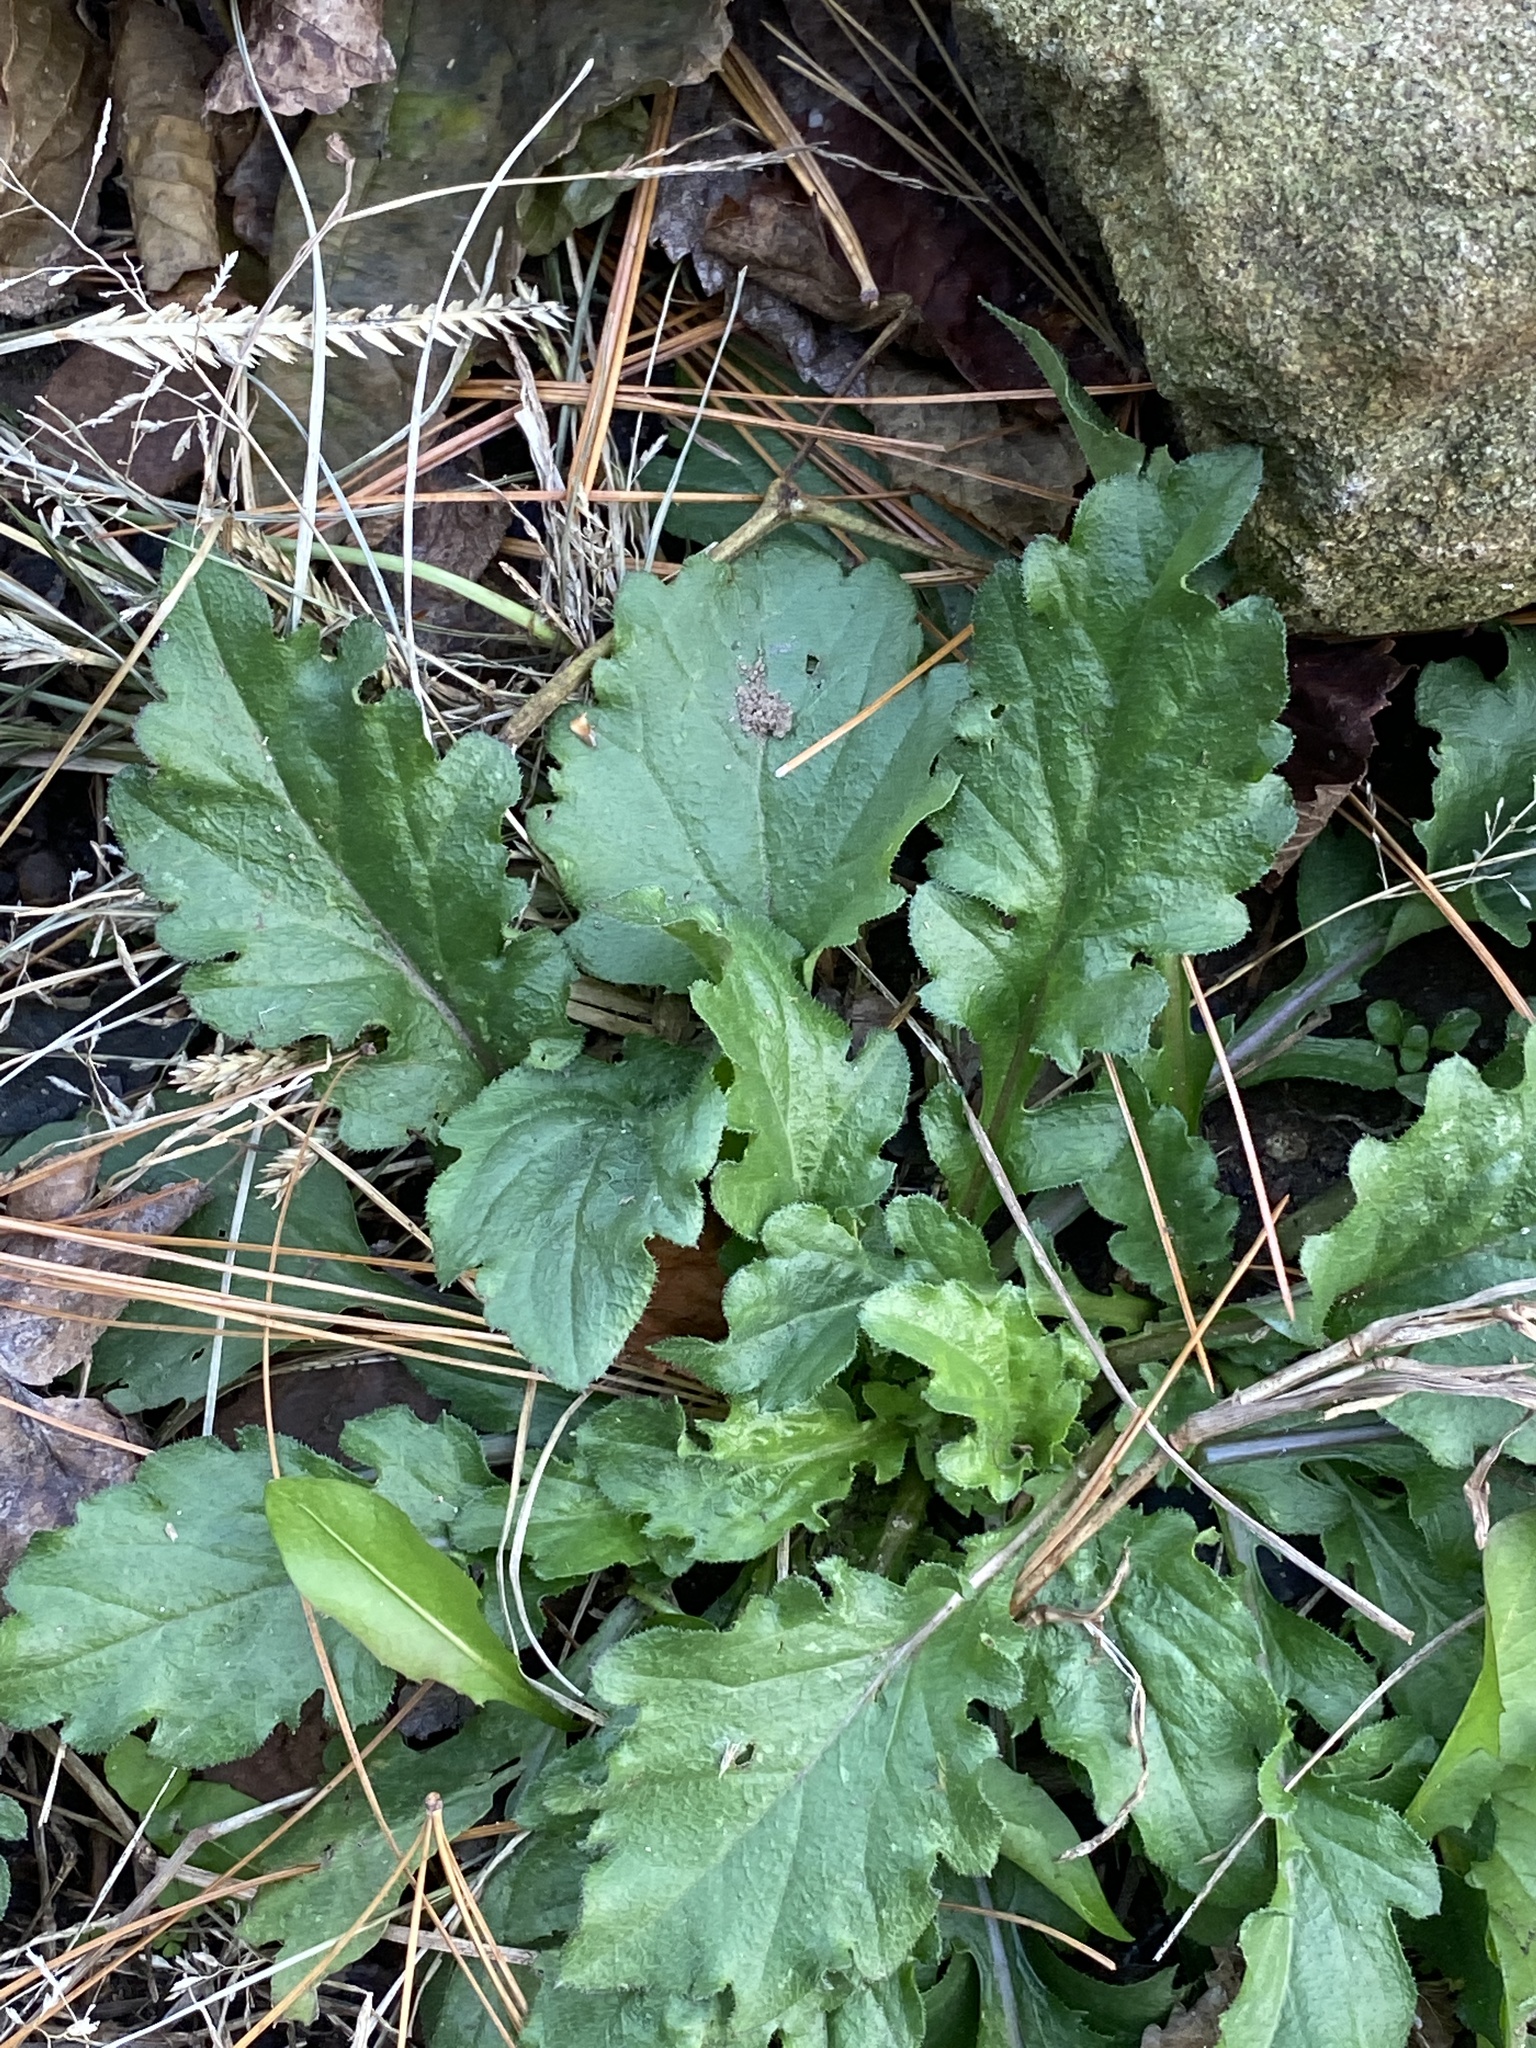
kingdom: Plantae
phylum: Tracheophyta
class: Magnoliopsida
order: Asterales
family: Asteraceae
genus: Erigeron
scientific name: Erigeron annuus
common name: Tall fleabane
